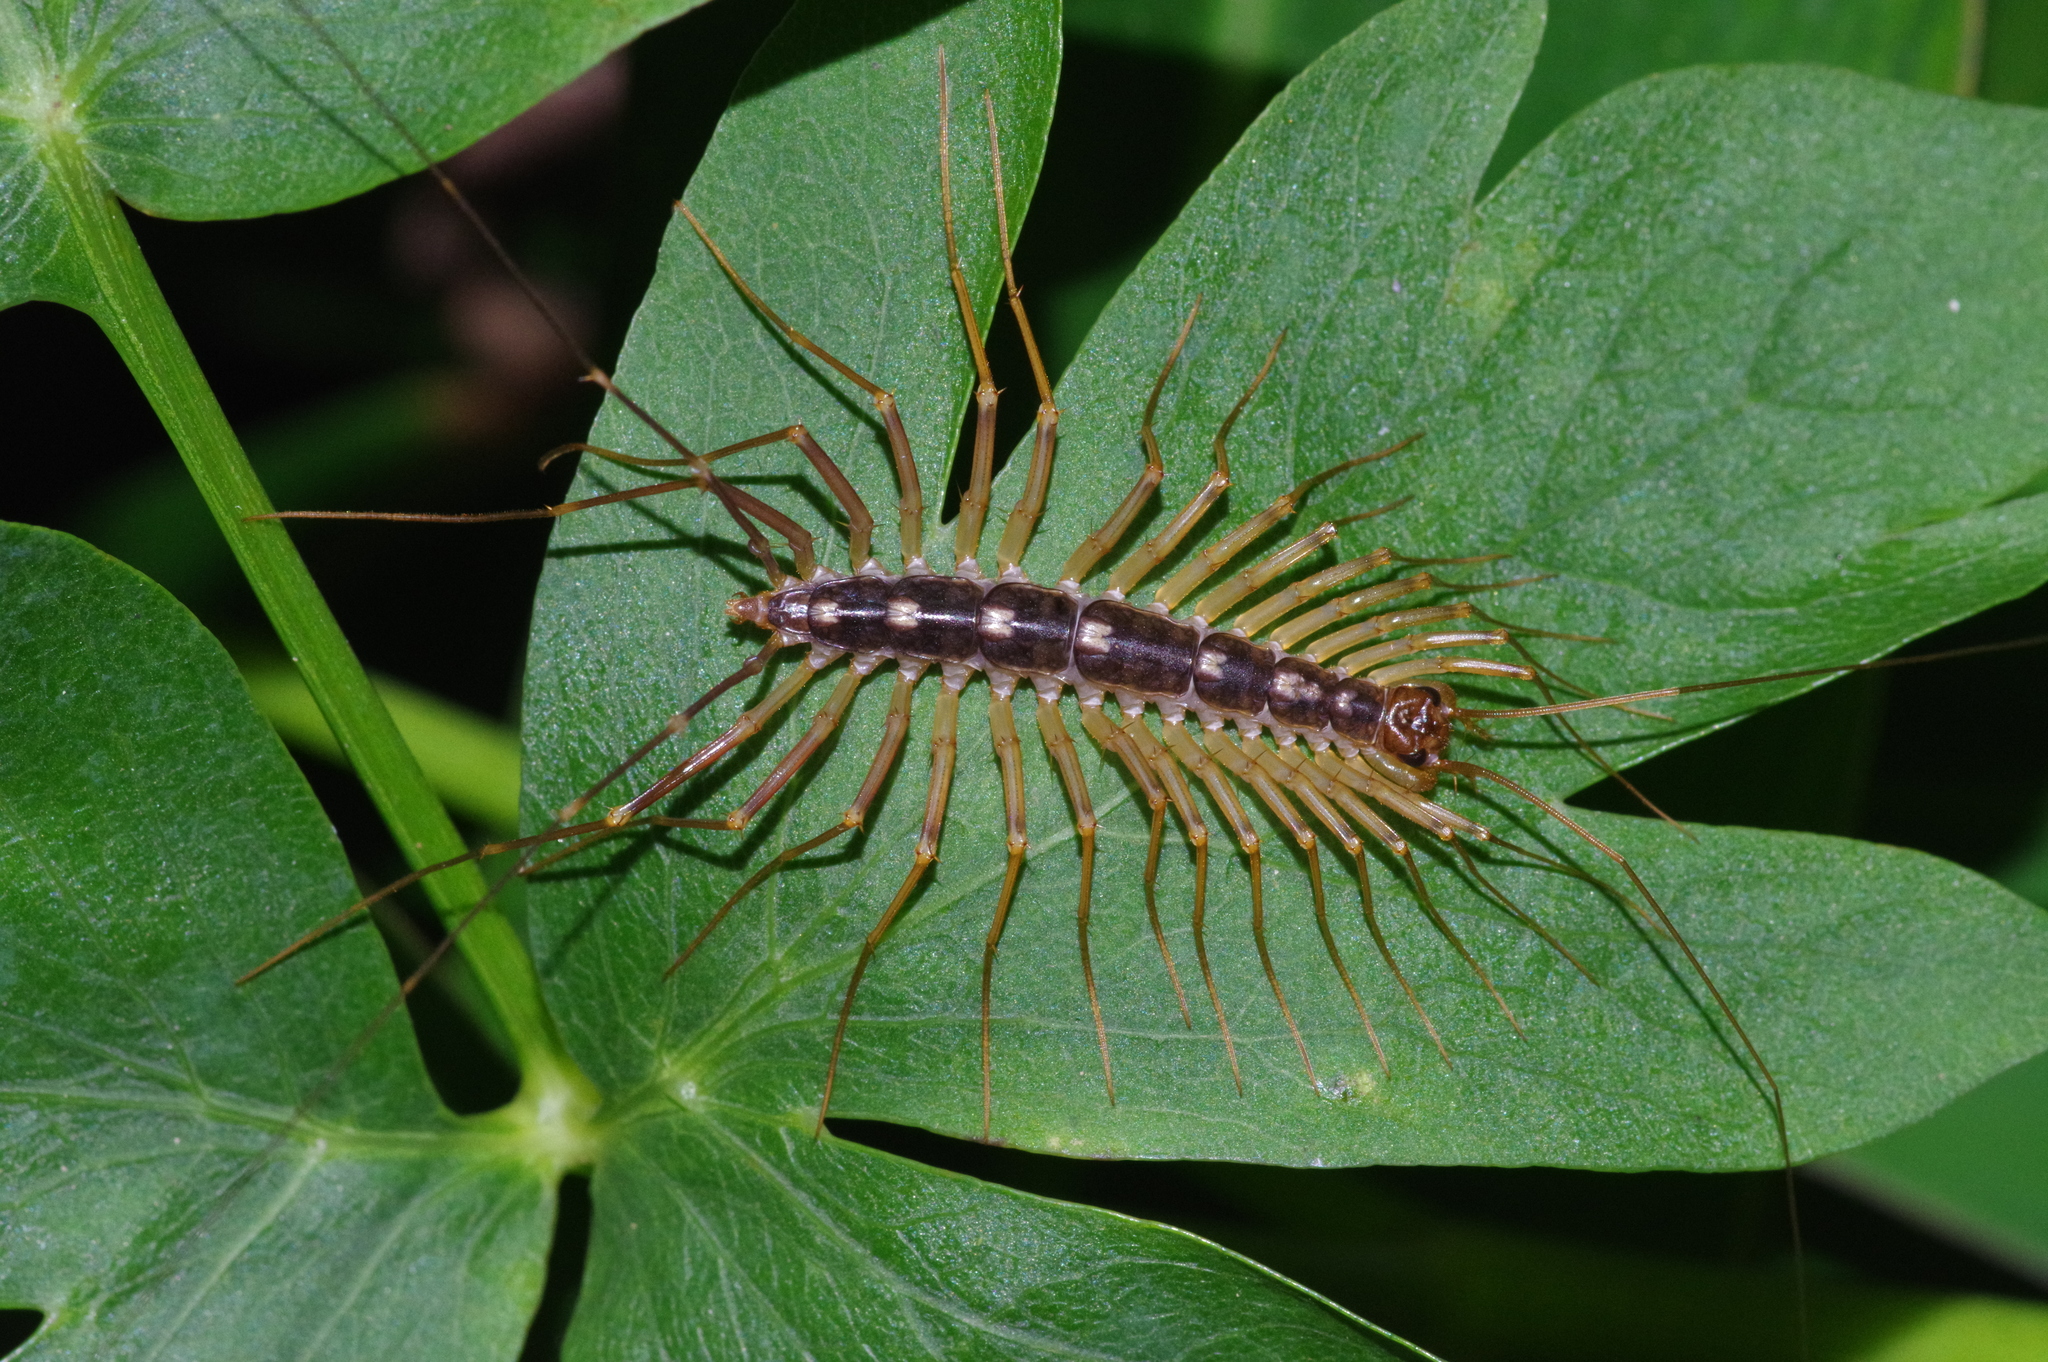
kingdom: Animalia
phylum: Arthropoda
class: Chilopoda
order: Scutigeromorpha
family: Scutigeridae
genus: Thereuopoda
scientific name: Thereuopoda clunifera
